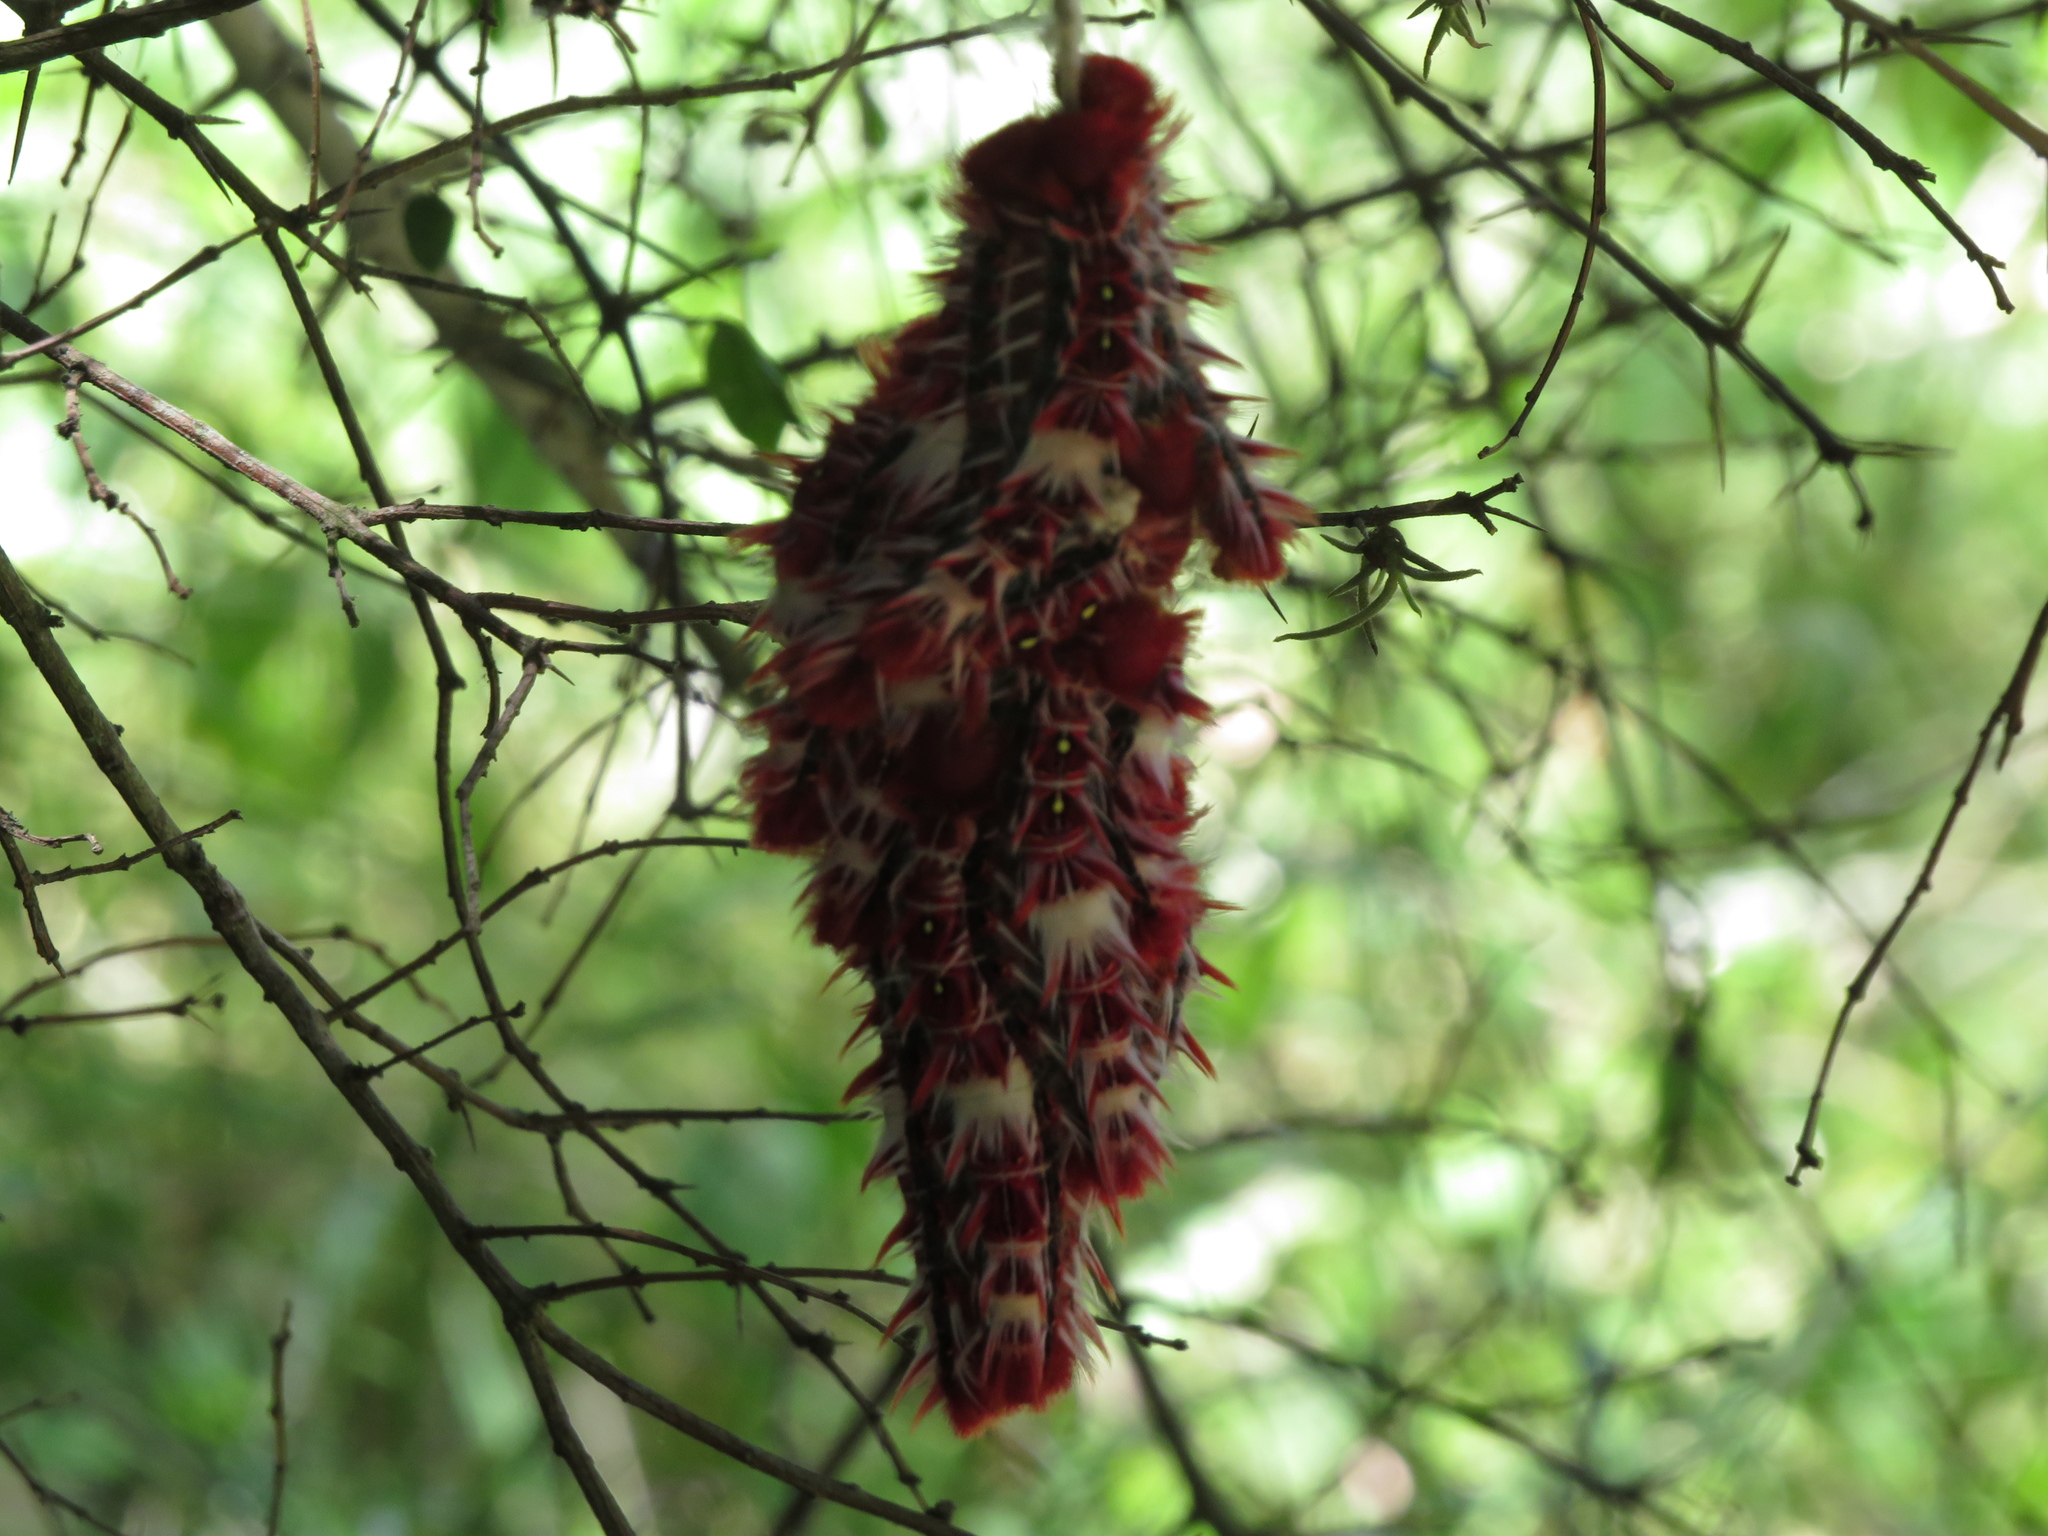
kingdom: Animalia
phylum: Arthropoda
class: Insecta
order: Lepidoptera
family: Nymphalidae
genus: Morpho
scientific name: Morpho epistrophus
